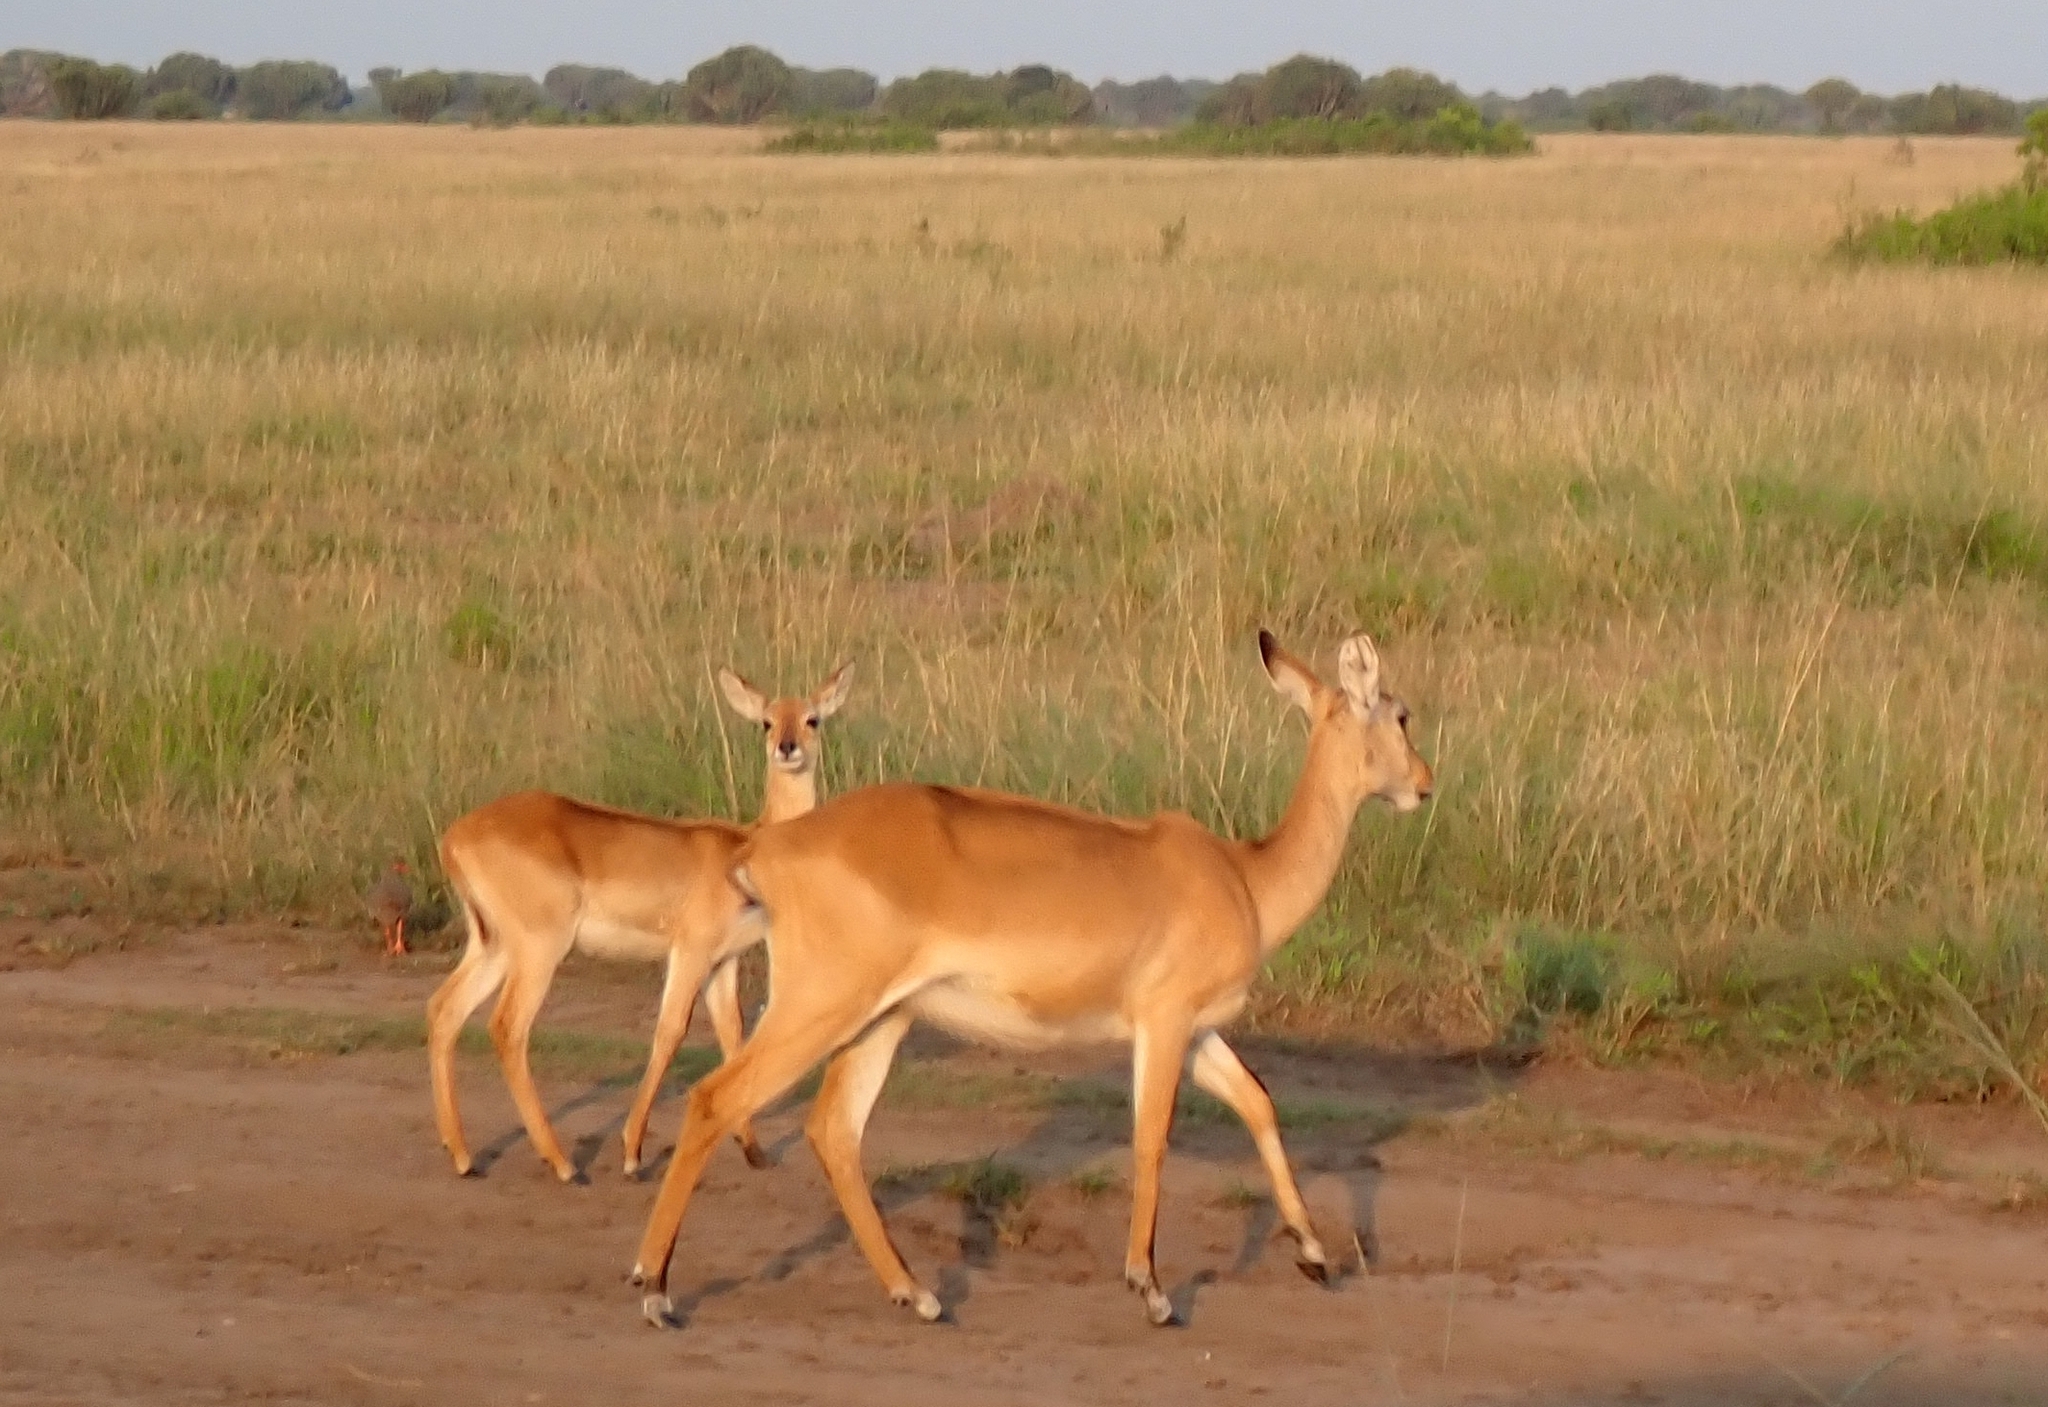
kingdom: Animalia
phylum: Chordata
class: Mammalia
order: Artiodactyla
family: Bovidae
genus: Kobus
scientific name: Kobus kob
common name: Kob
